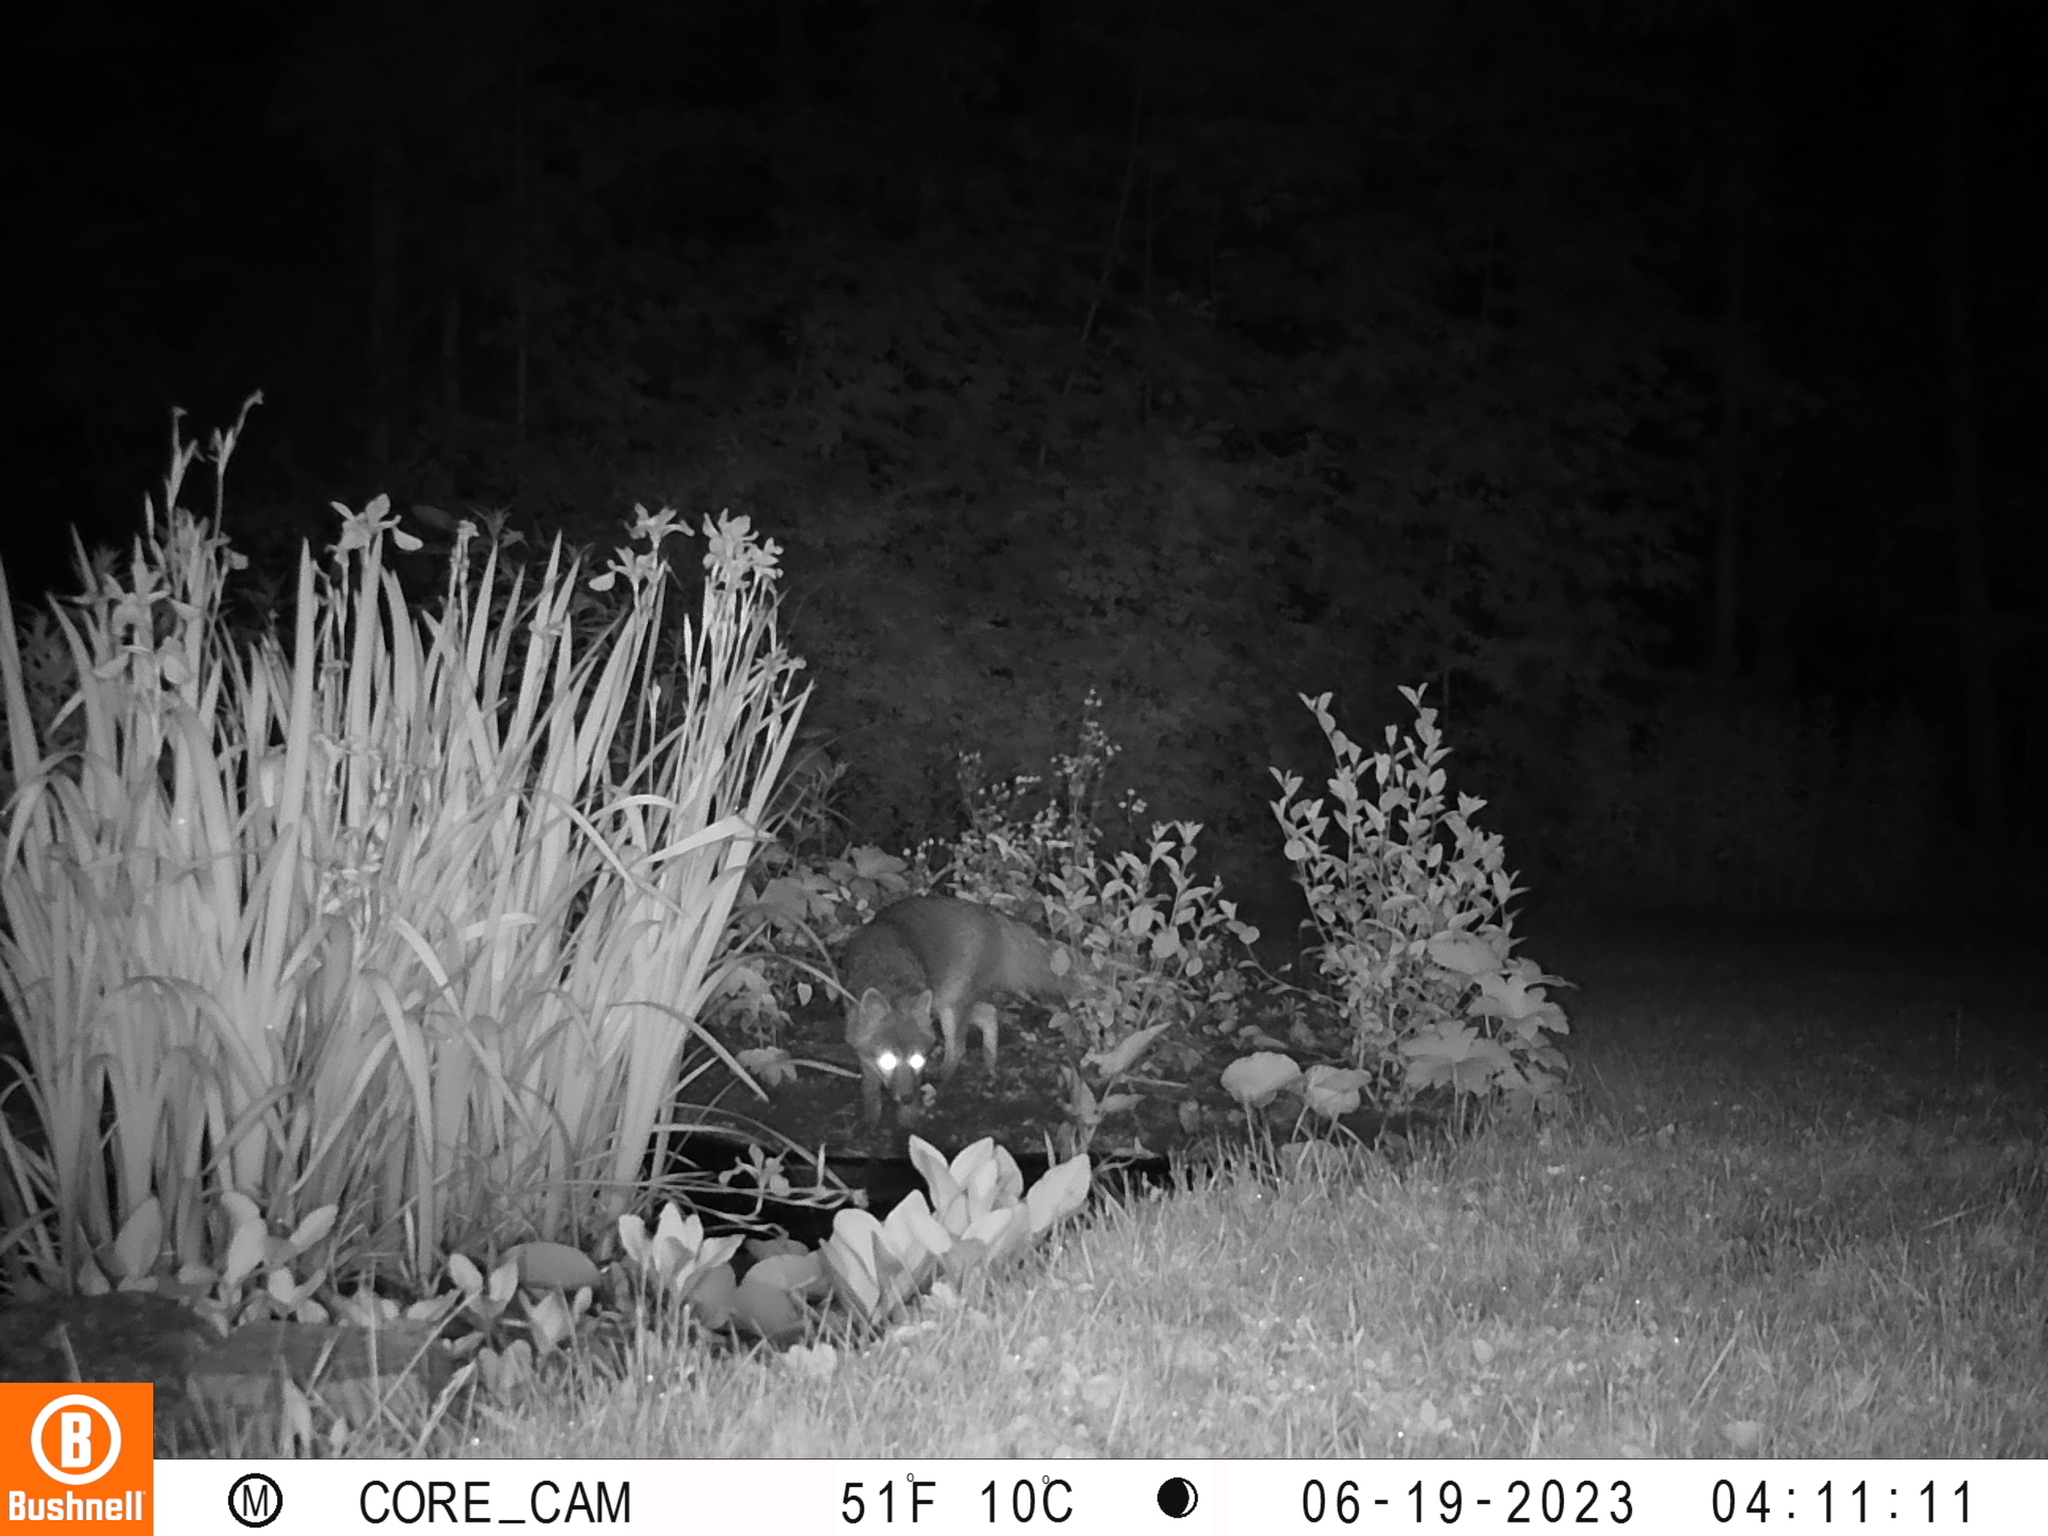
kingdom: Animalia
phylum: Chordata
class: Mammalia
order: Carnivora
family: Canidae
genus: Urocyon
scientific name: Urocyon cinereoargenteus
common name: Gray fox
